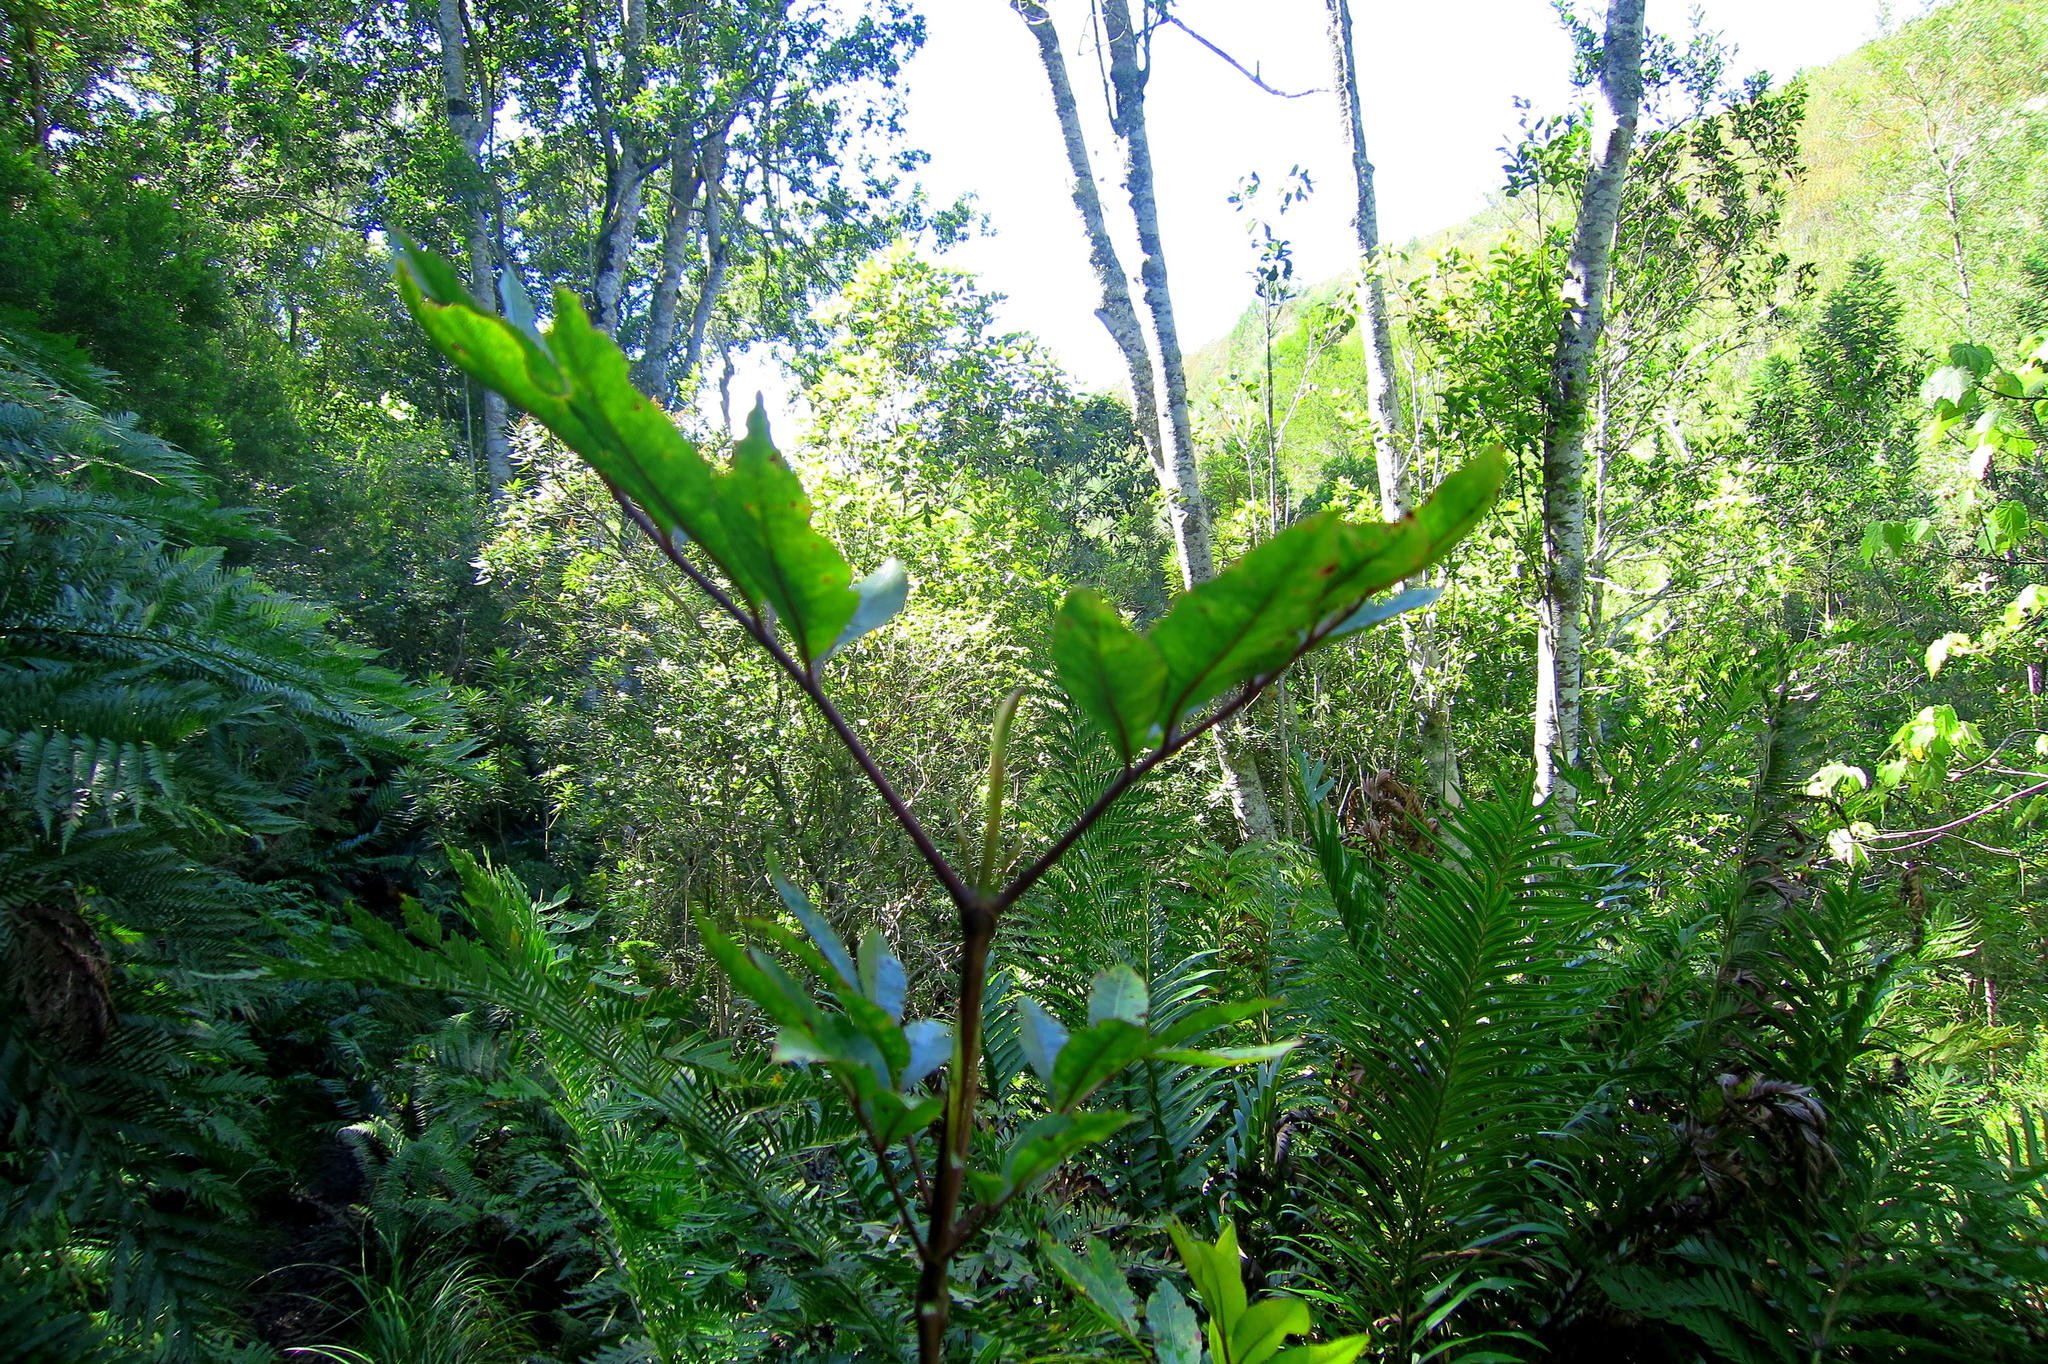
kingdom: Plantae
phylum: Tracheophyta
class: Magnoliopsida
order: Oxalidales
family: Cunoniaceae
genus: Cunonia
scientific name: Cunonia capensis
